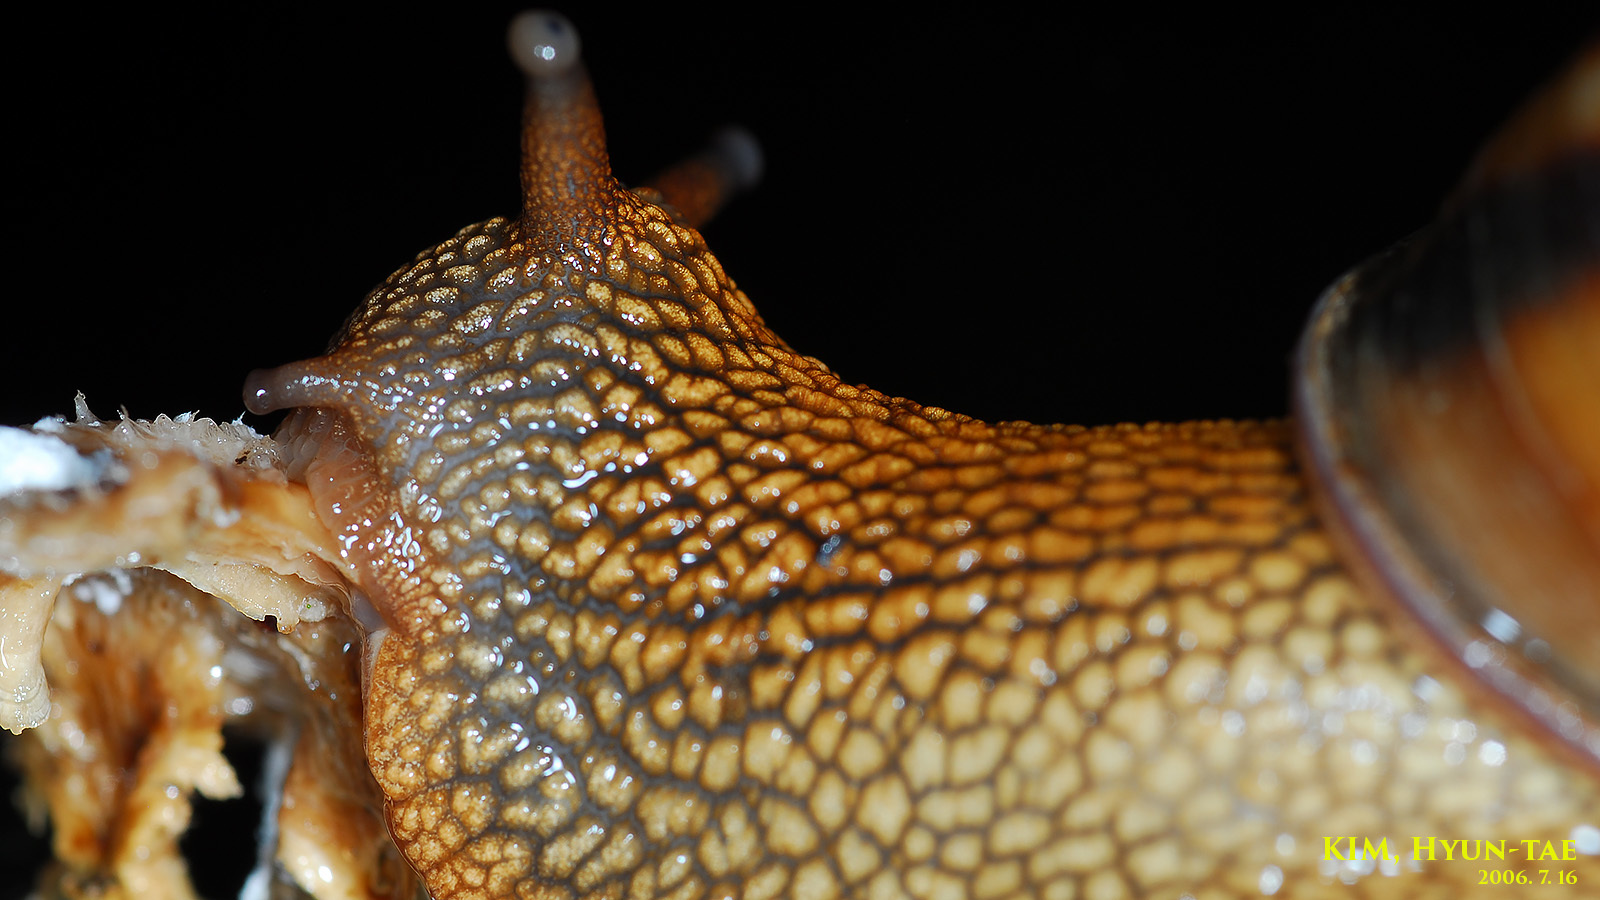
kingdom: Animalia
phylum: Mollusca
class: Gastropoda
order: Stylommatophora
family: Camaenidae
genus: Nesiohelix
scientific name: Nesiohelix samarangae
